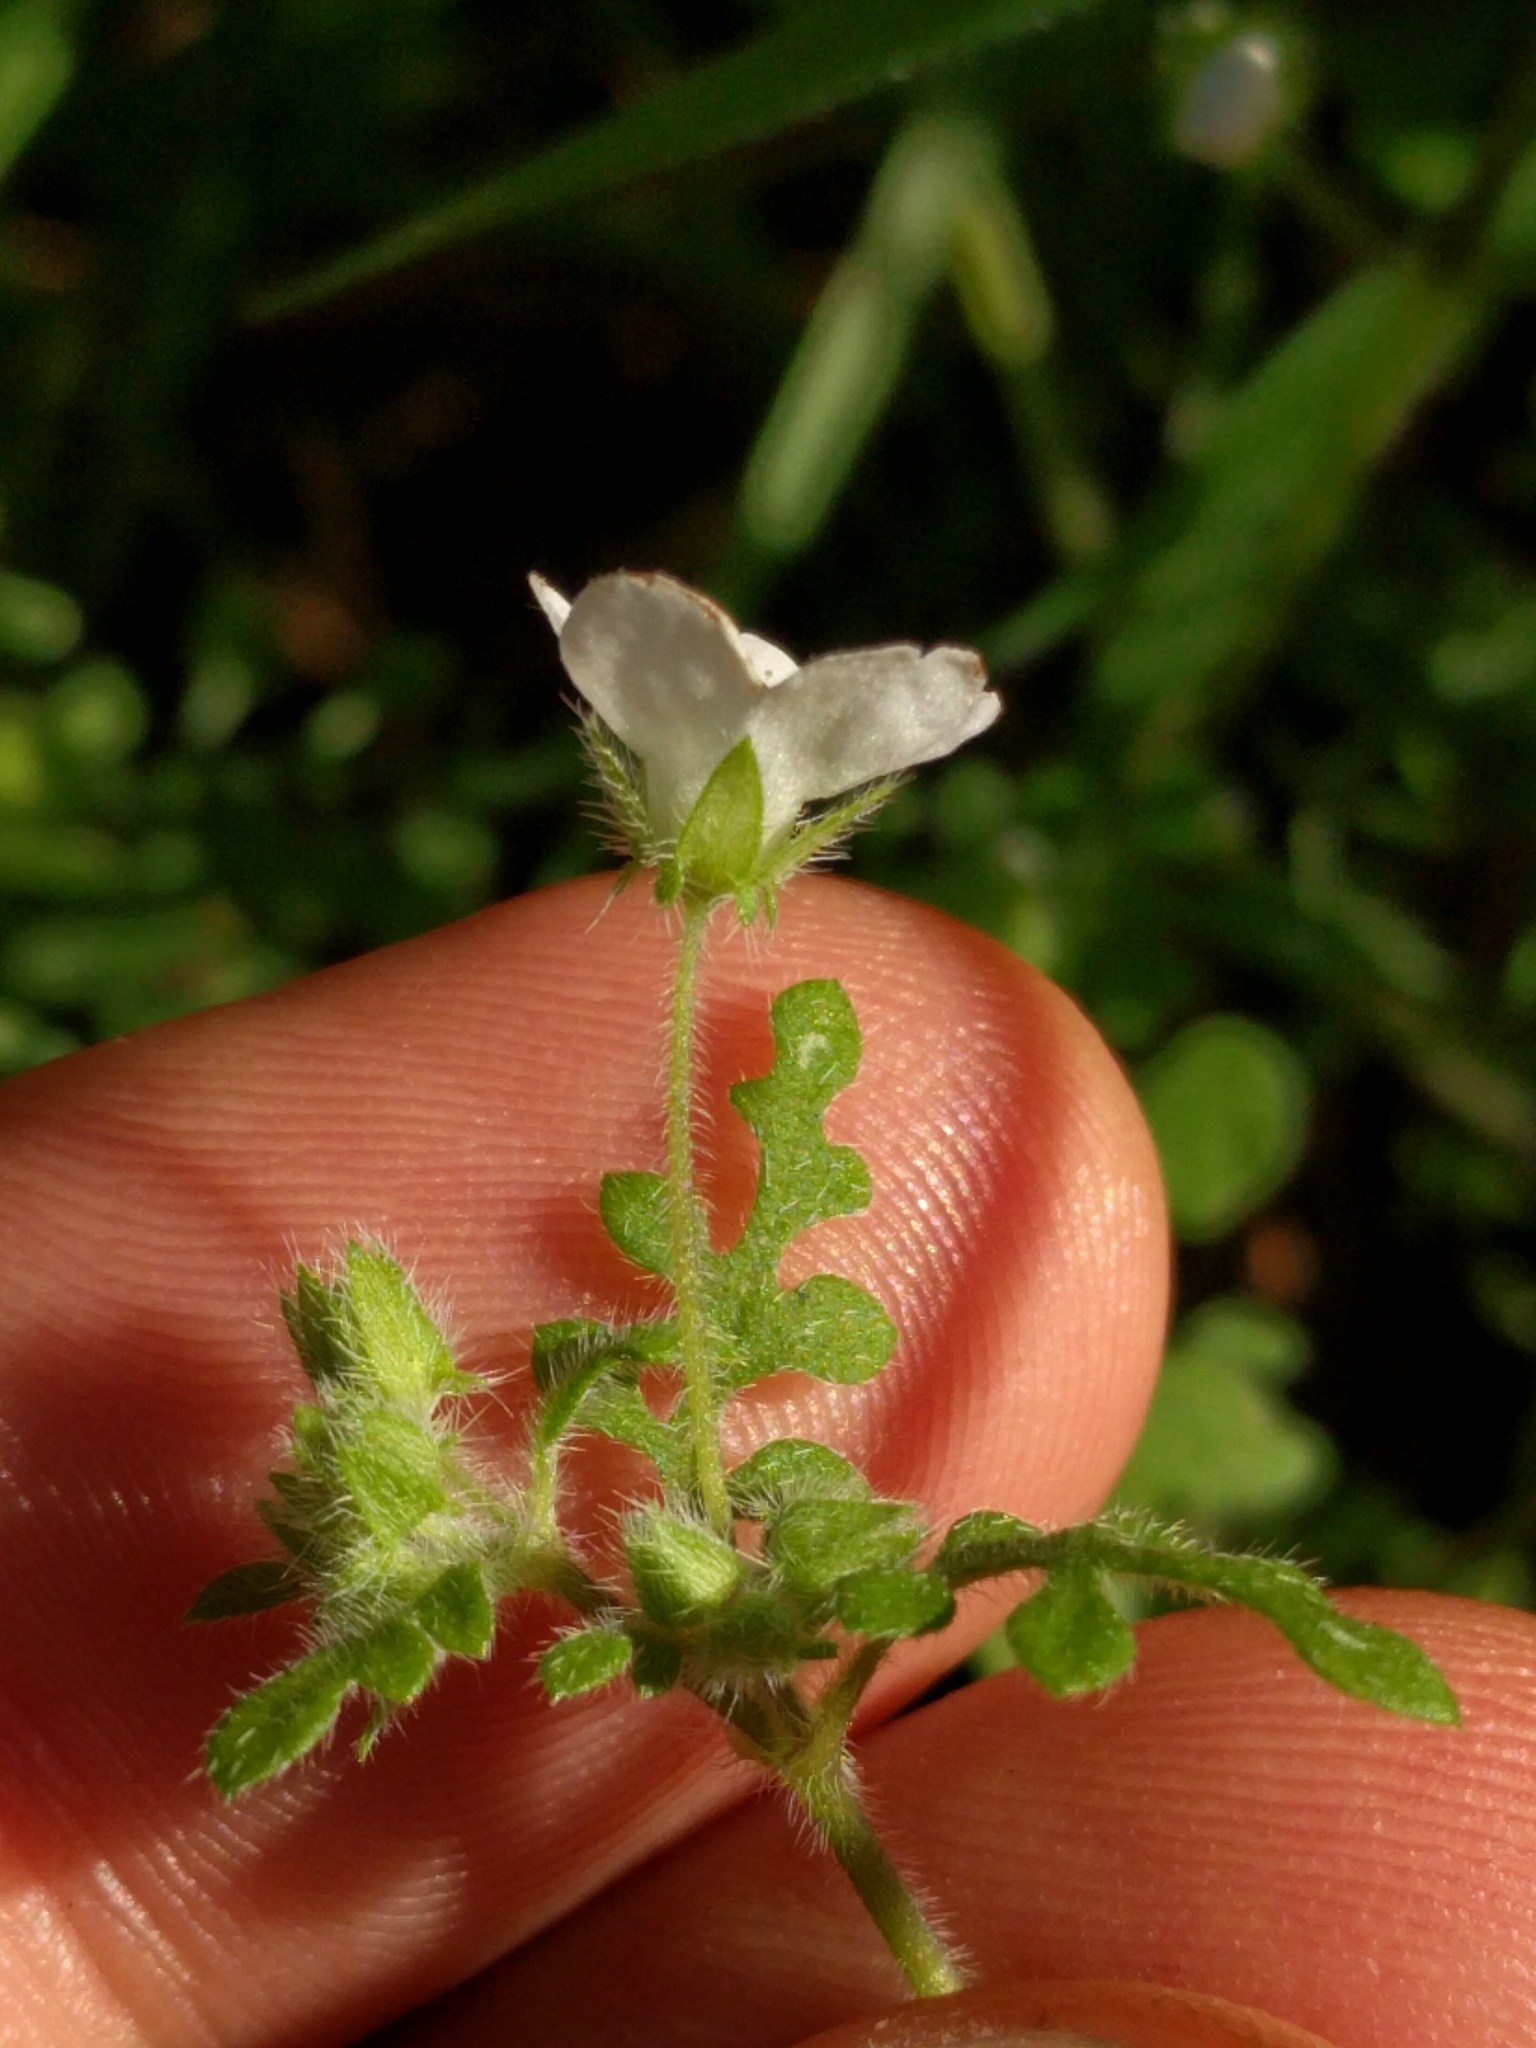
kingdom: Plantae
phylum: Tracheophyta
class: Magnoliopsida
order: Boraginales
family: Hydrophyllaceae
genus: Nemophila
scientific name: Nemophila heterophylla
